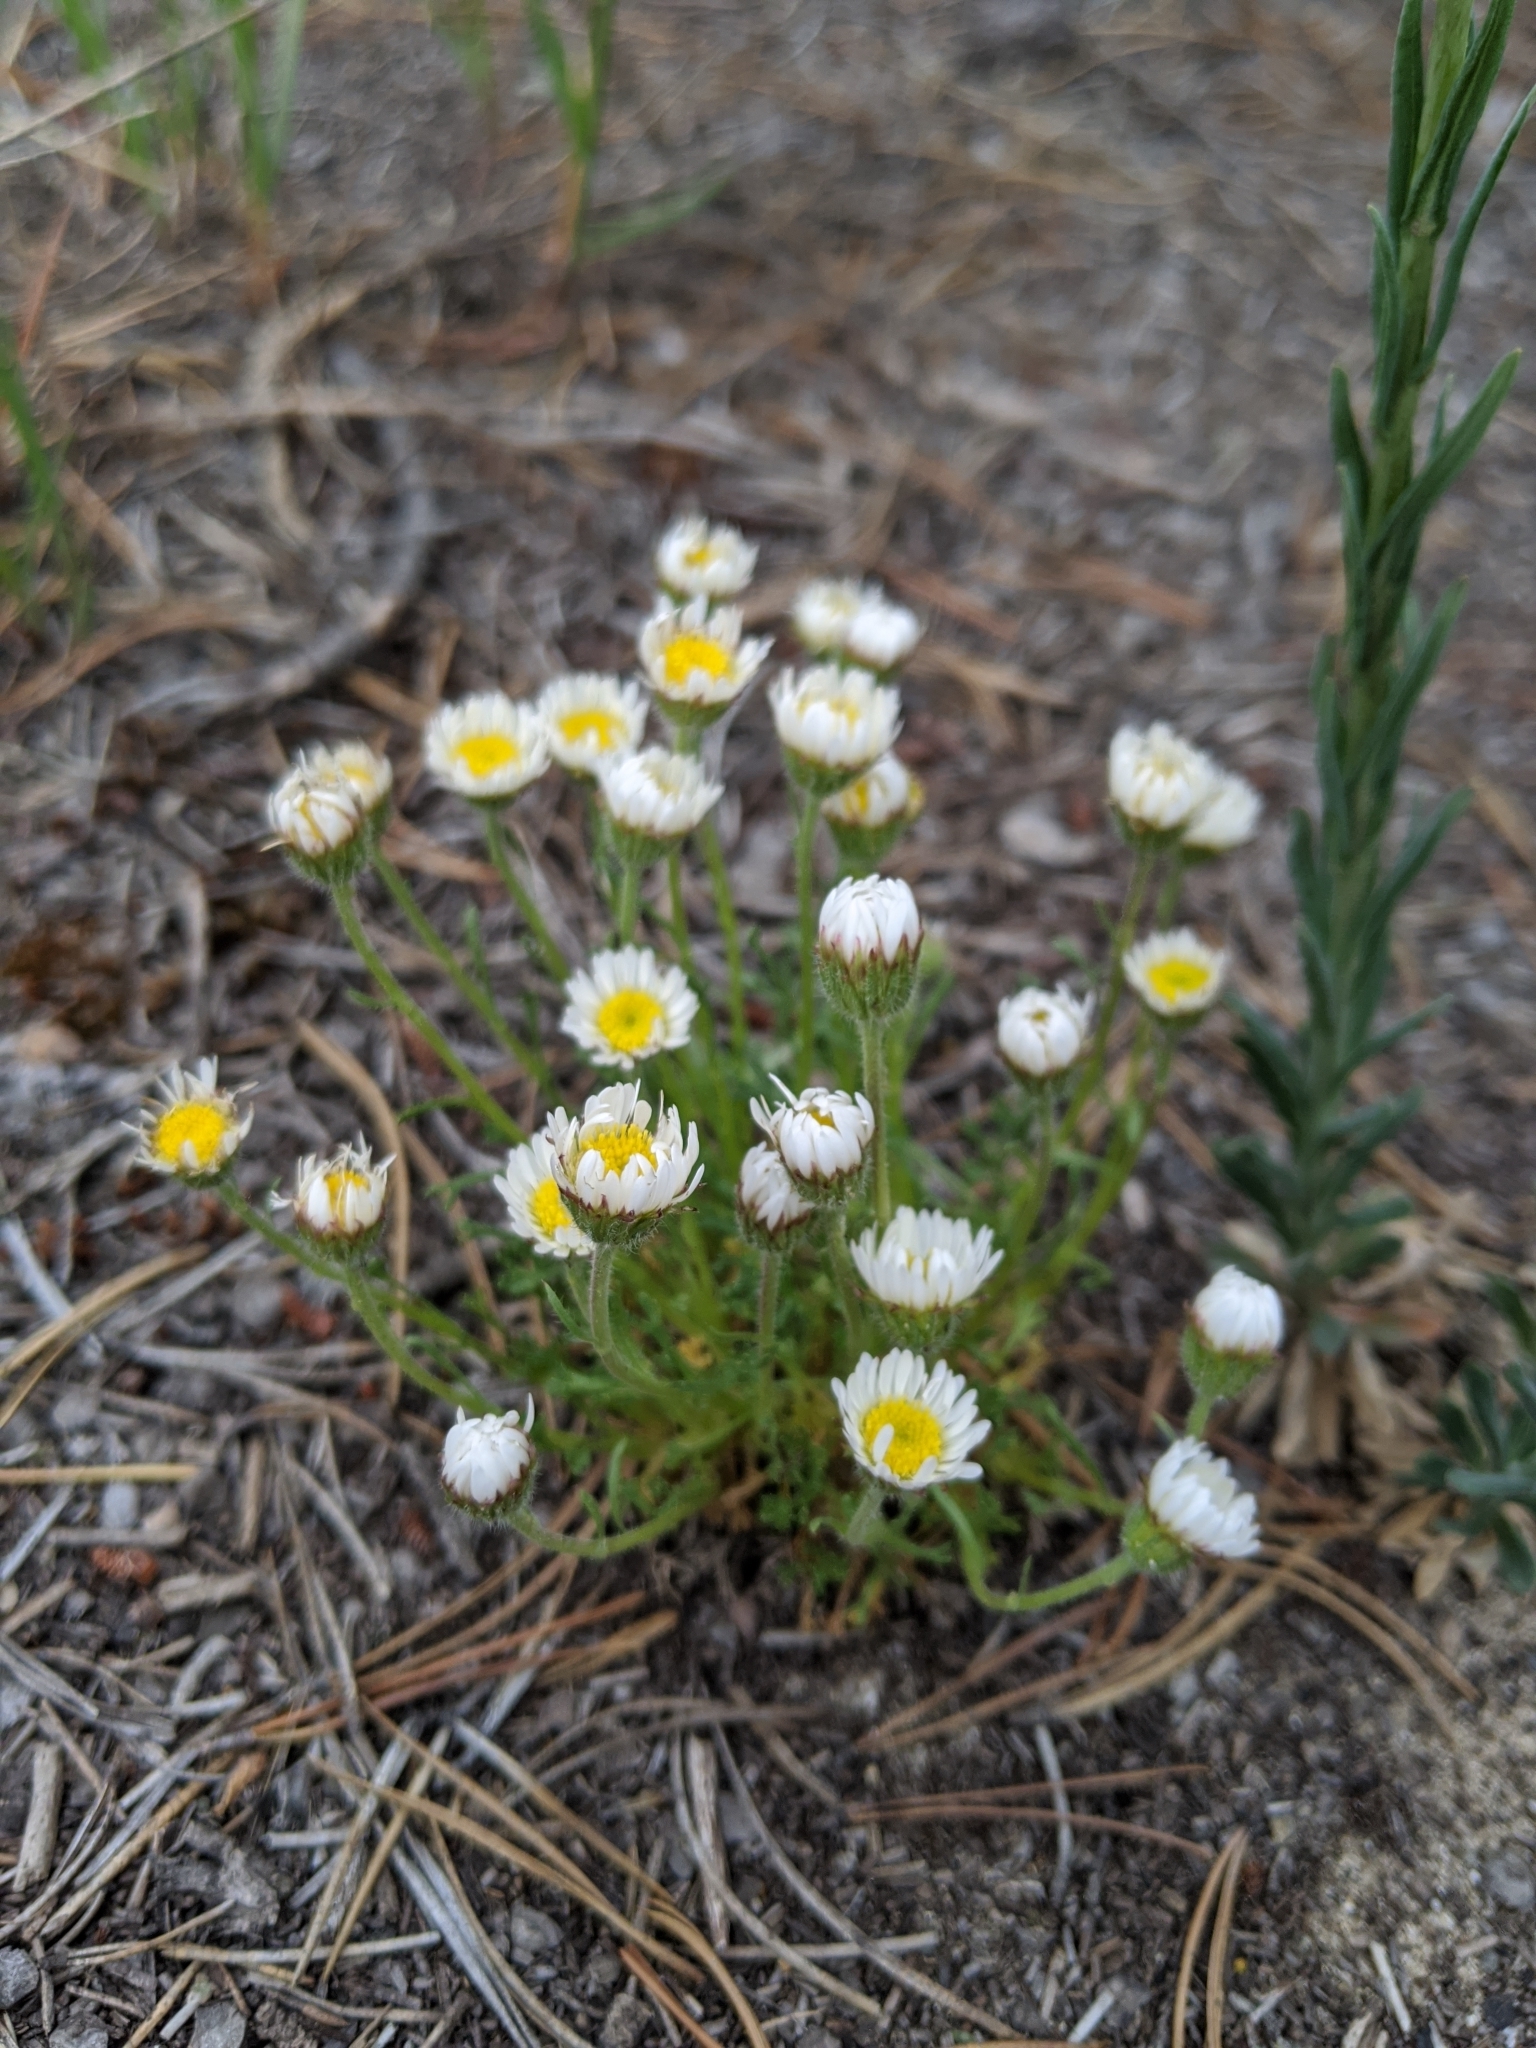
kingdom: Plantae
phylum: Tracheophyta
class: Magnoliopsida
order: Asterales
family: Asteraceae
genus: Erigeron
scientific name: Erigeron compositus
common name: Dwarf mountain fleabane
